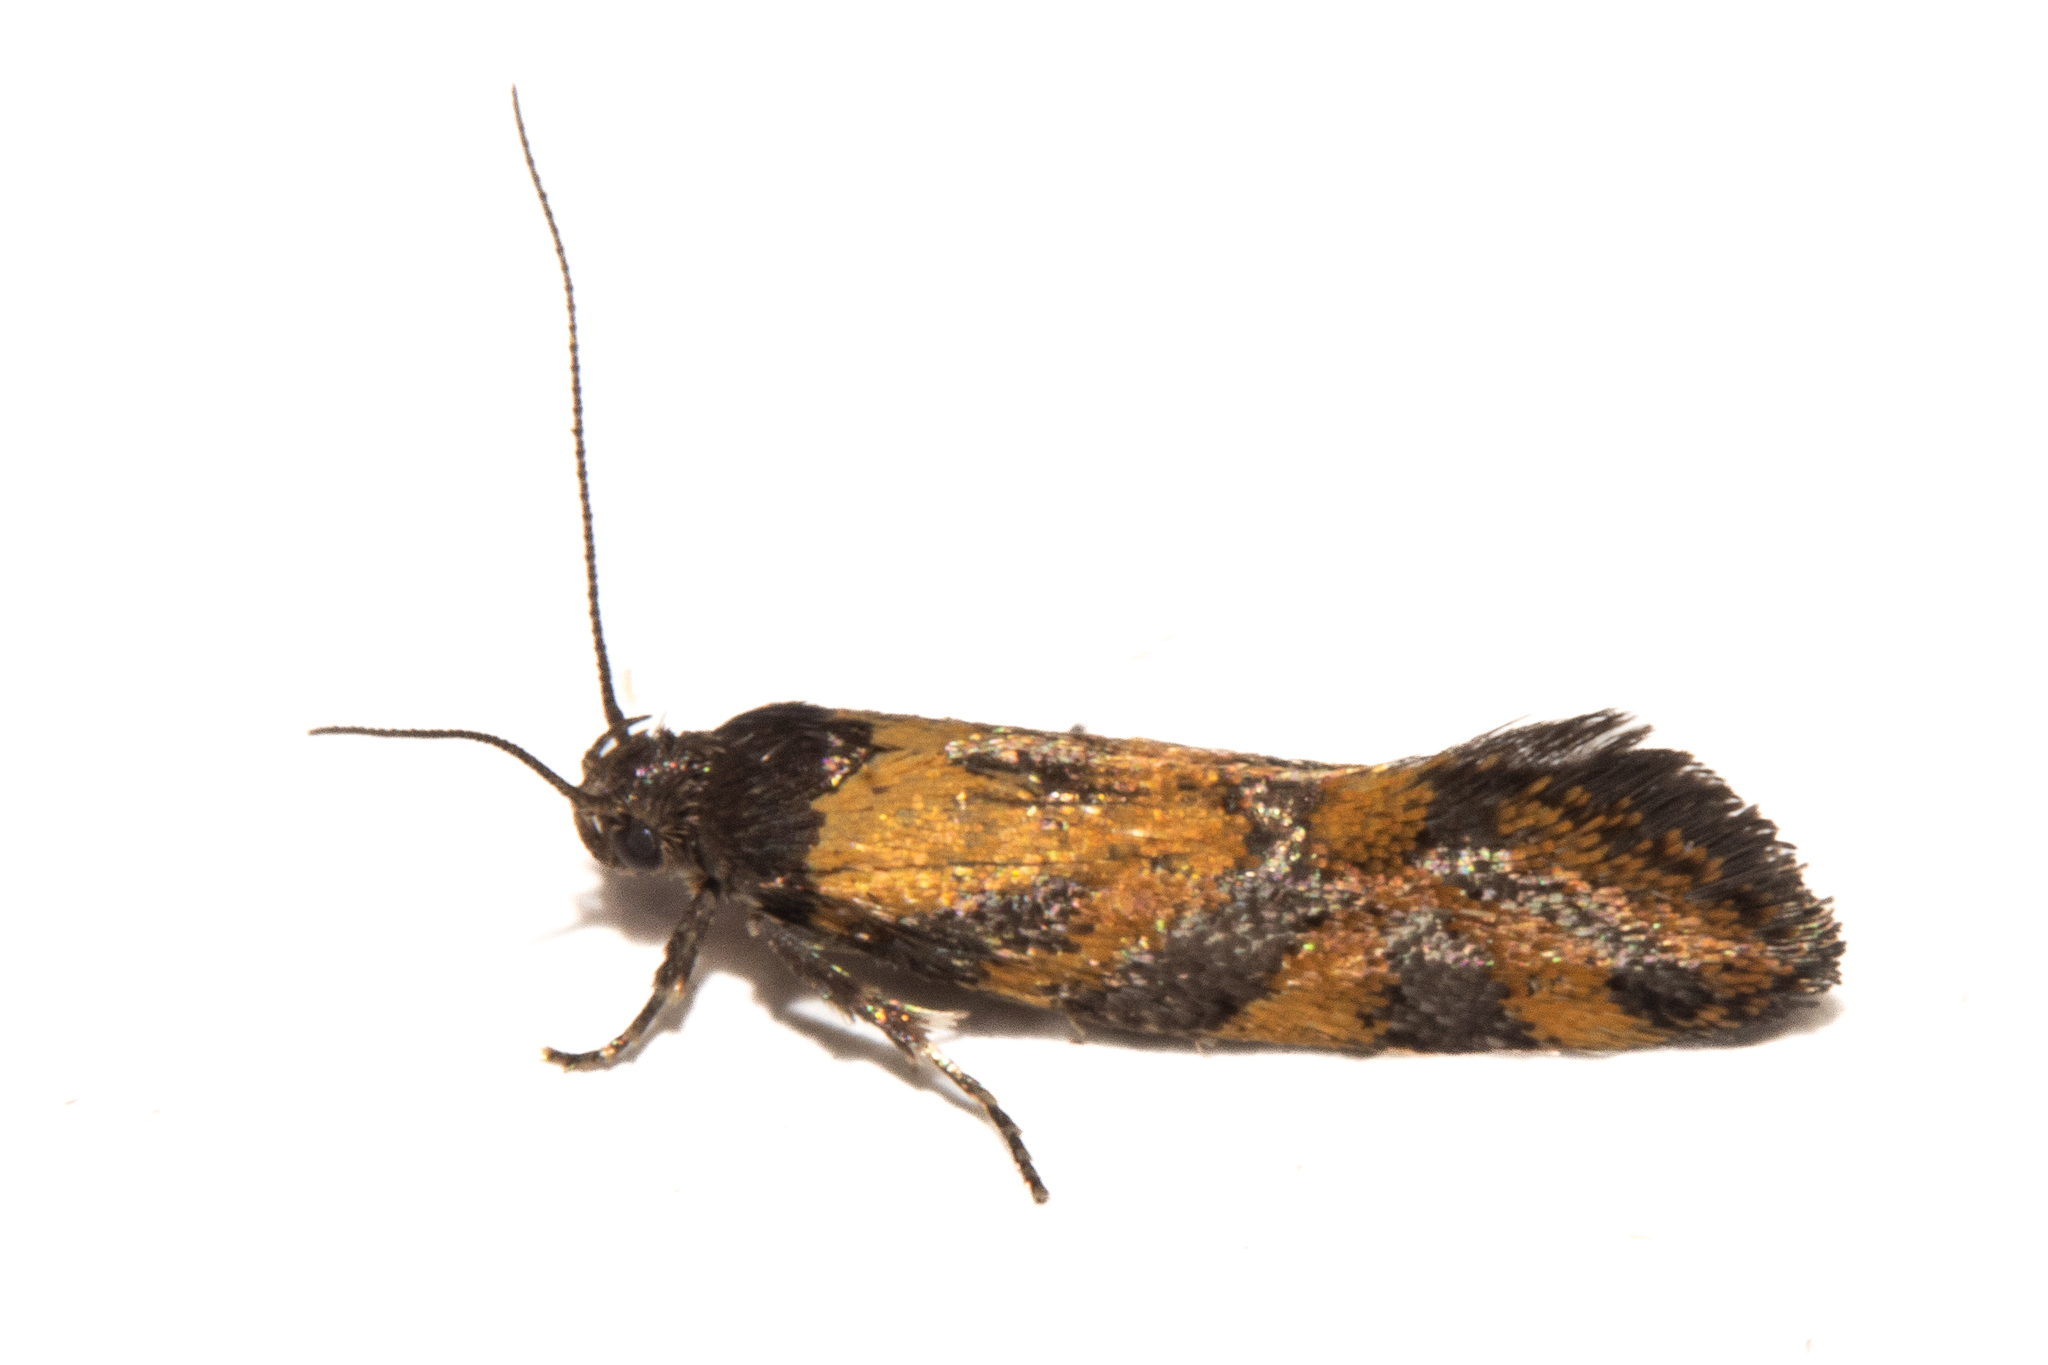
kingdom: Animalia
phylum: Arthropoda
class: Insecta
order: Lepidoptera
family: Oecophoridae
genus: Tingena
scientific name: Tingena compsogramma
